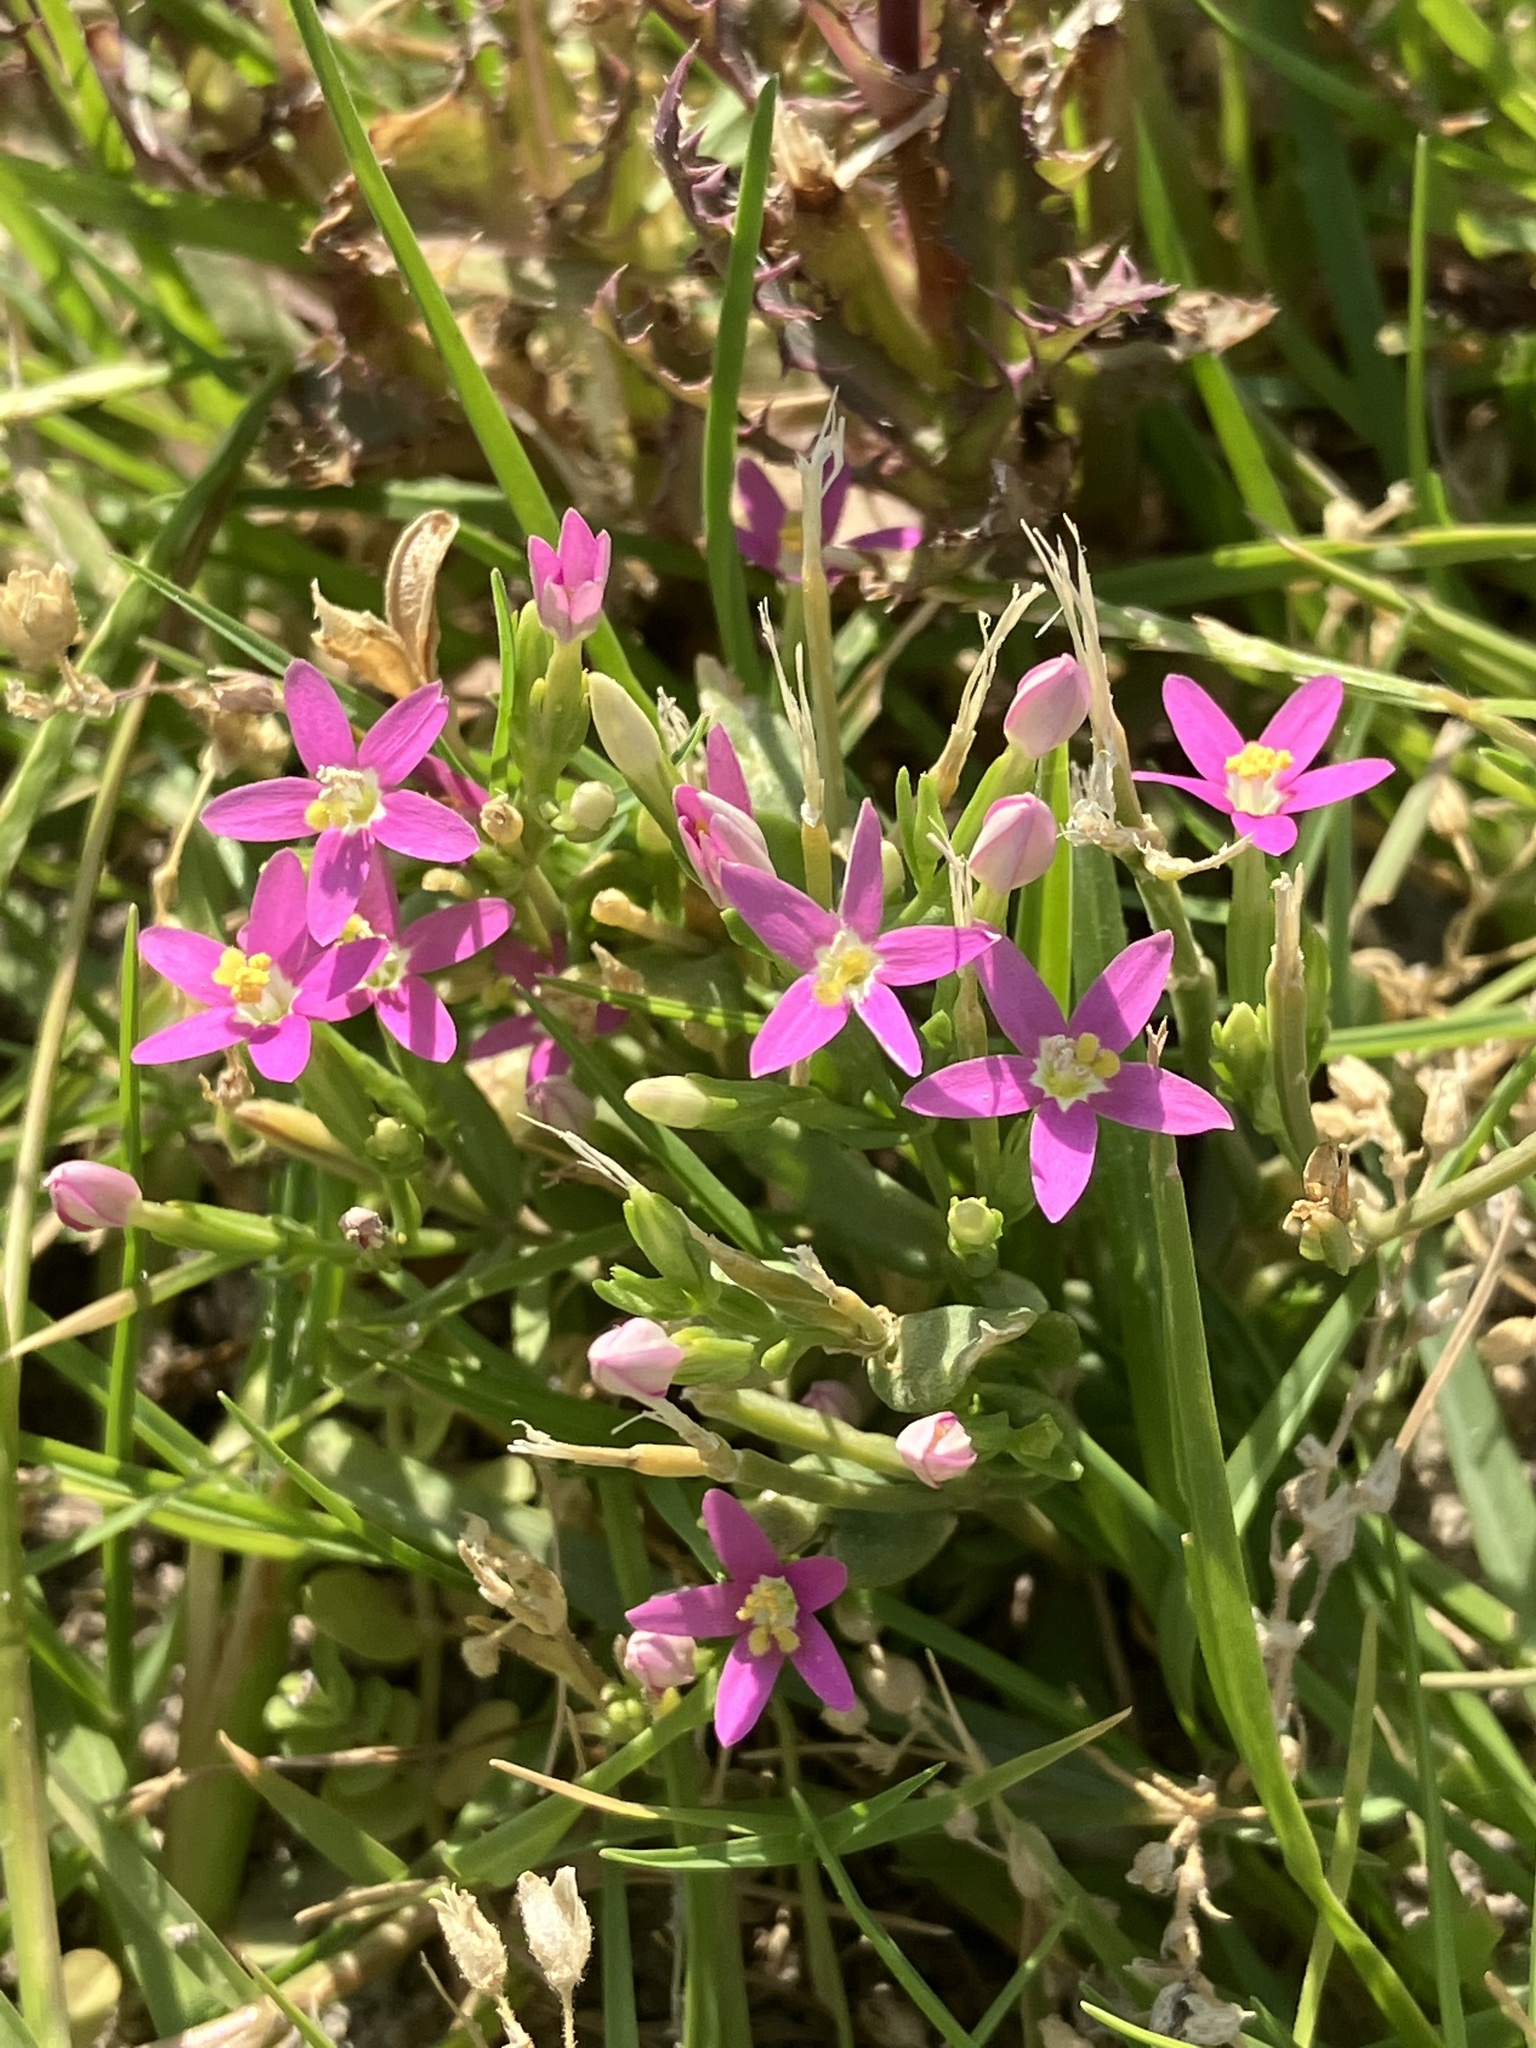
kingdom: Plantae
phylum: Tracheophyta
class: Magnoliopsida
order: Gentianales
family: Gentianaceae
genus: Centaurium
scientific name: Centaurium pulchellum
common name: Lesser centaury
